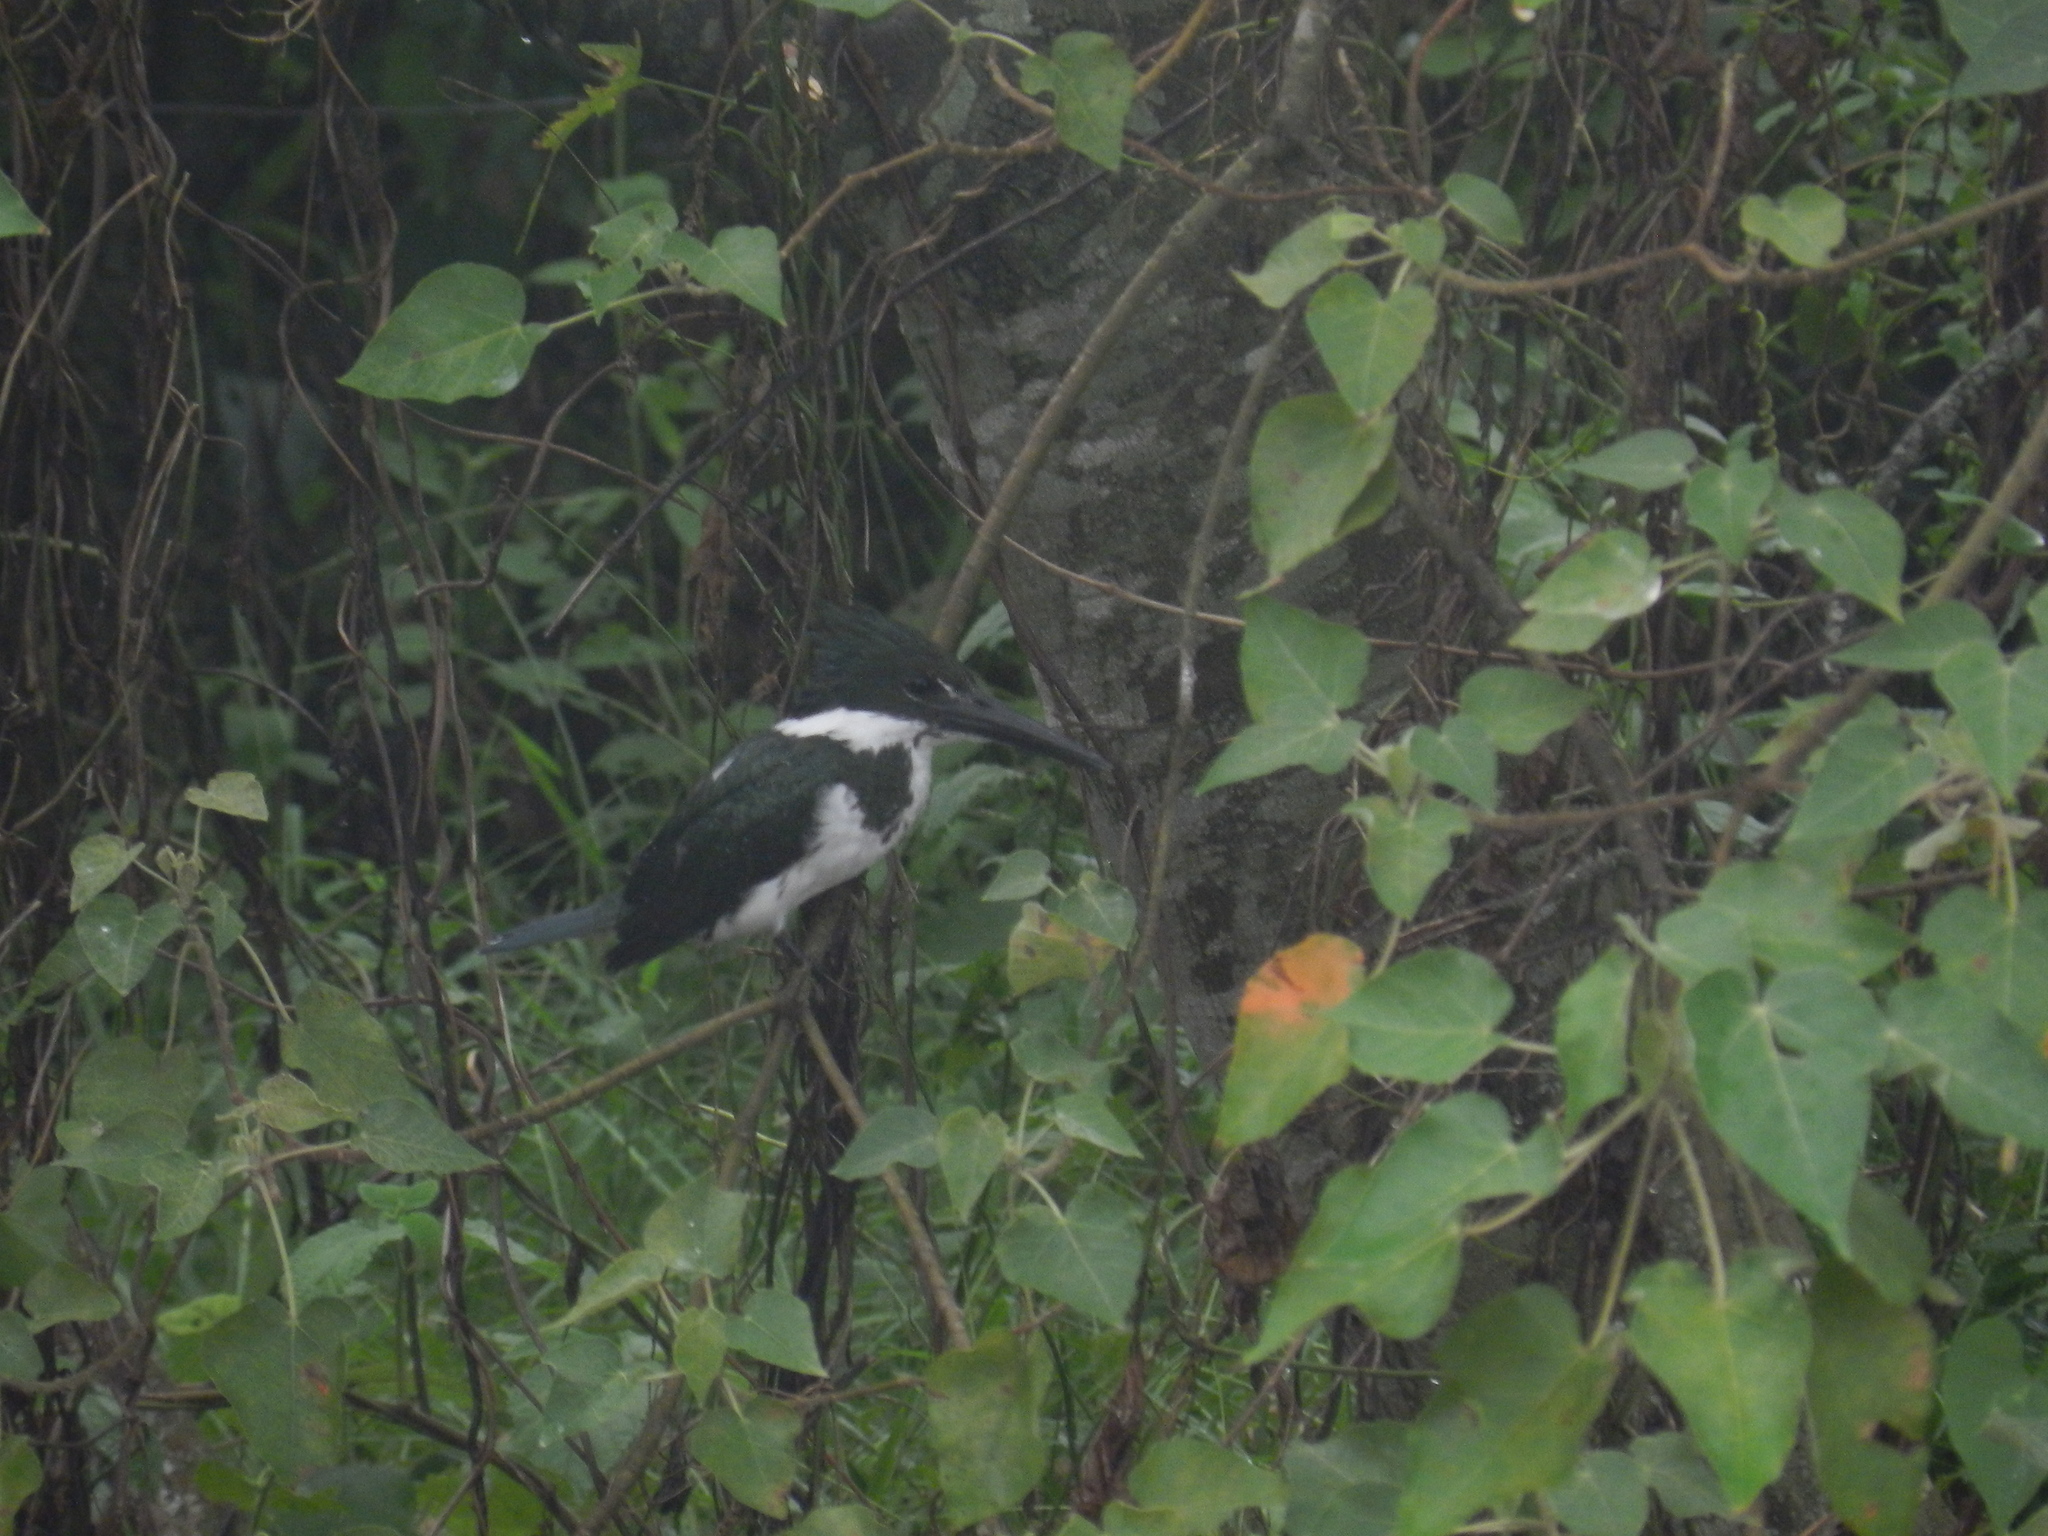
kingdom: Animalia
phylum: Chordata
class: Aves
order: Coraciiformes
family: Alcedinidae
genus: Chloroceryle
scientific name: Chloroceryle amazona
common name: Amazon kingfisher
